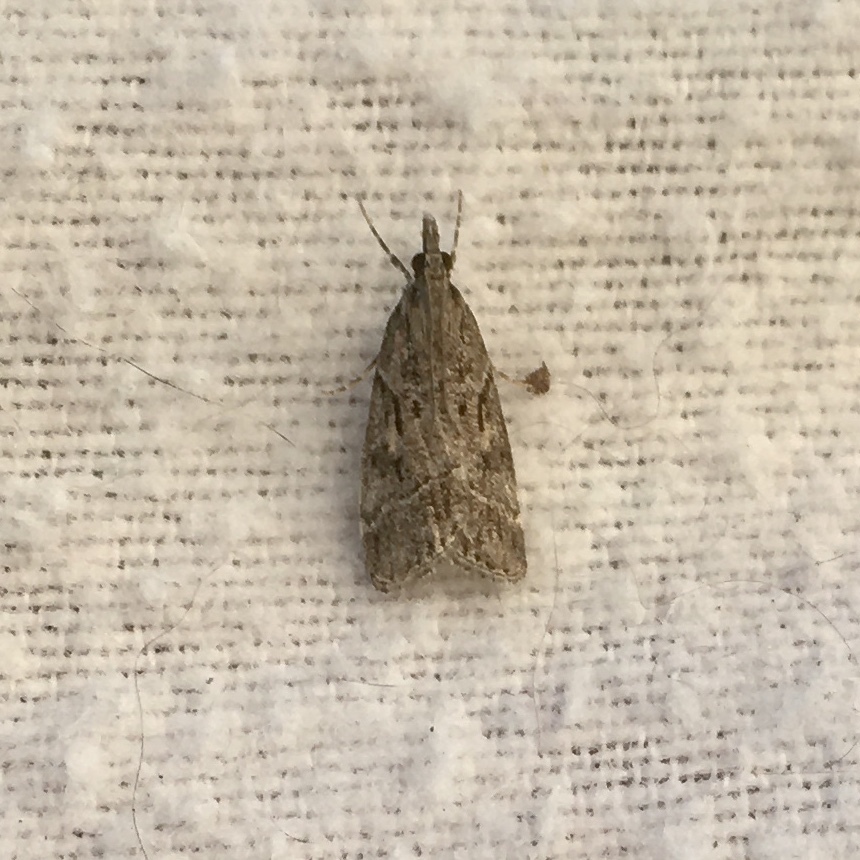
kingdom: Animalia
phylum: Arthropoda
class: Insecta
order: Lepidoptera
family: Crambidae
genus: Eudonia
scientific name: Eudonia rectilinea
